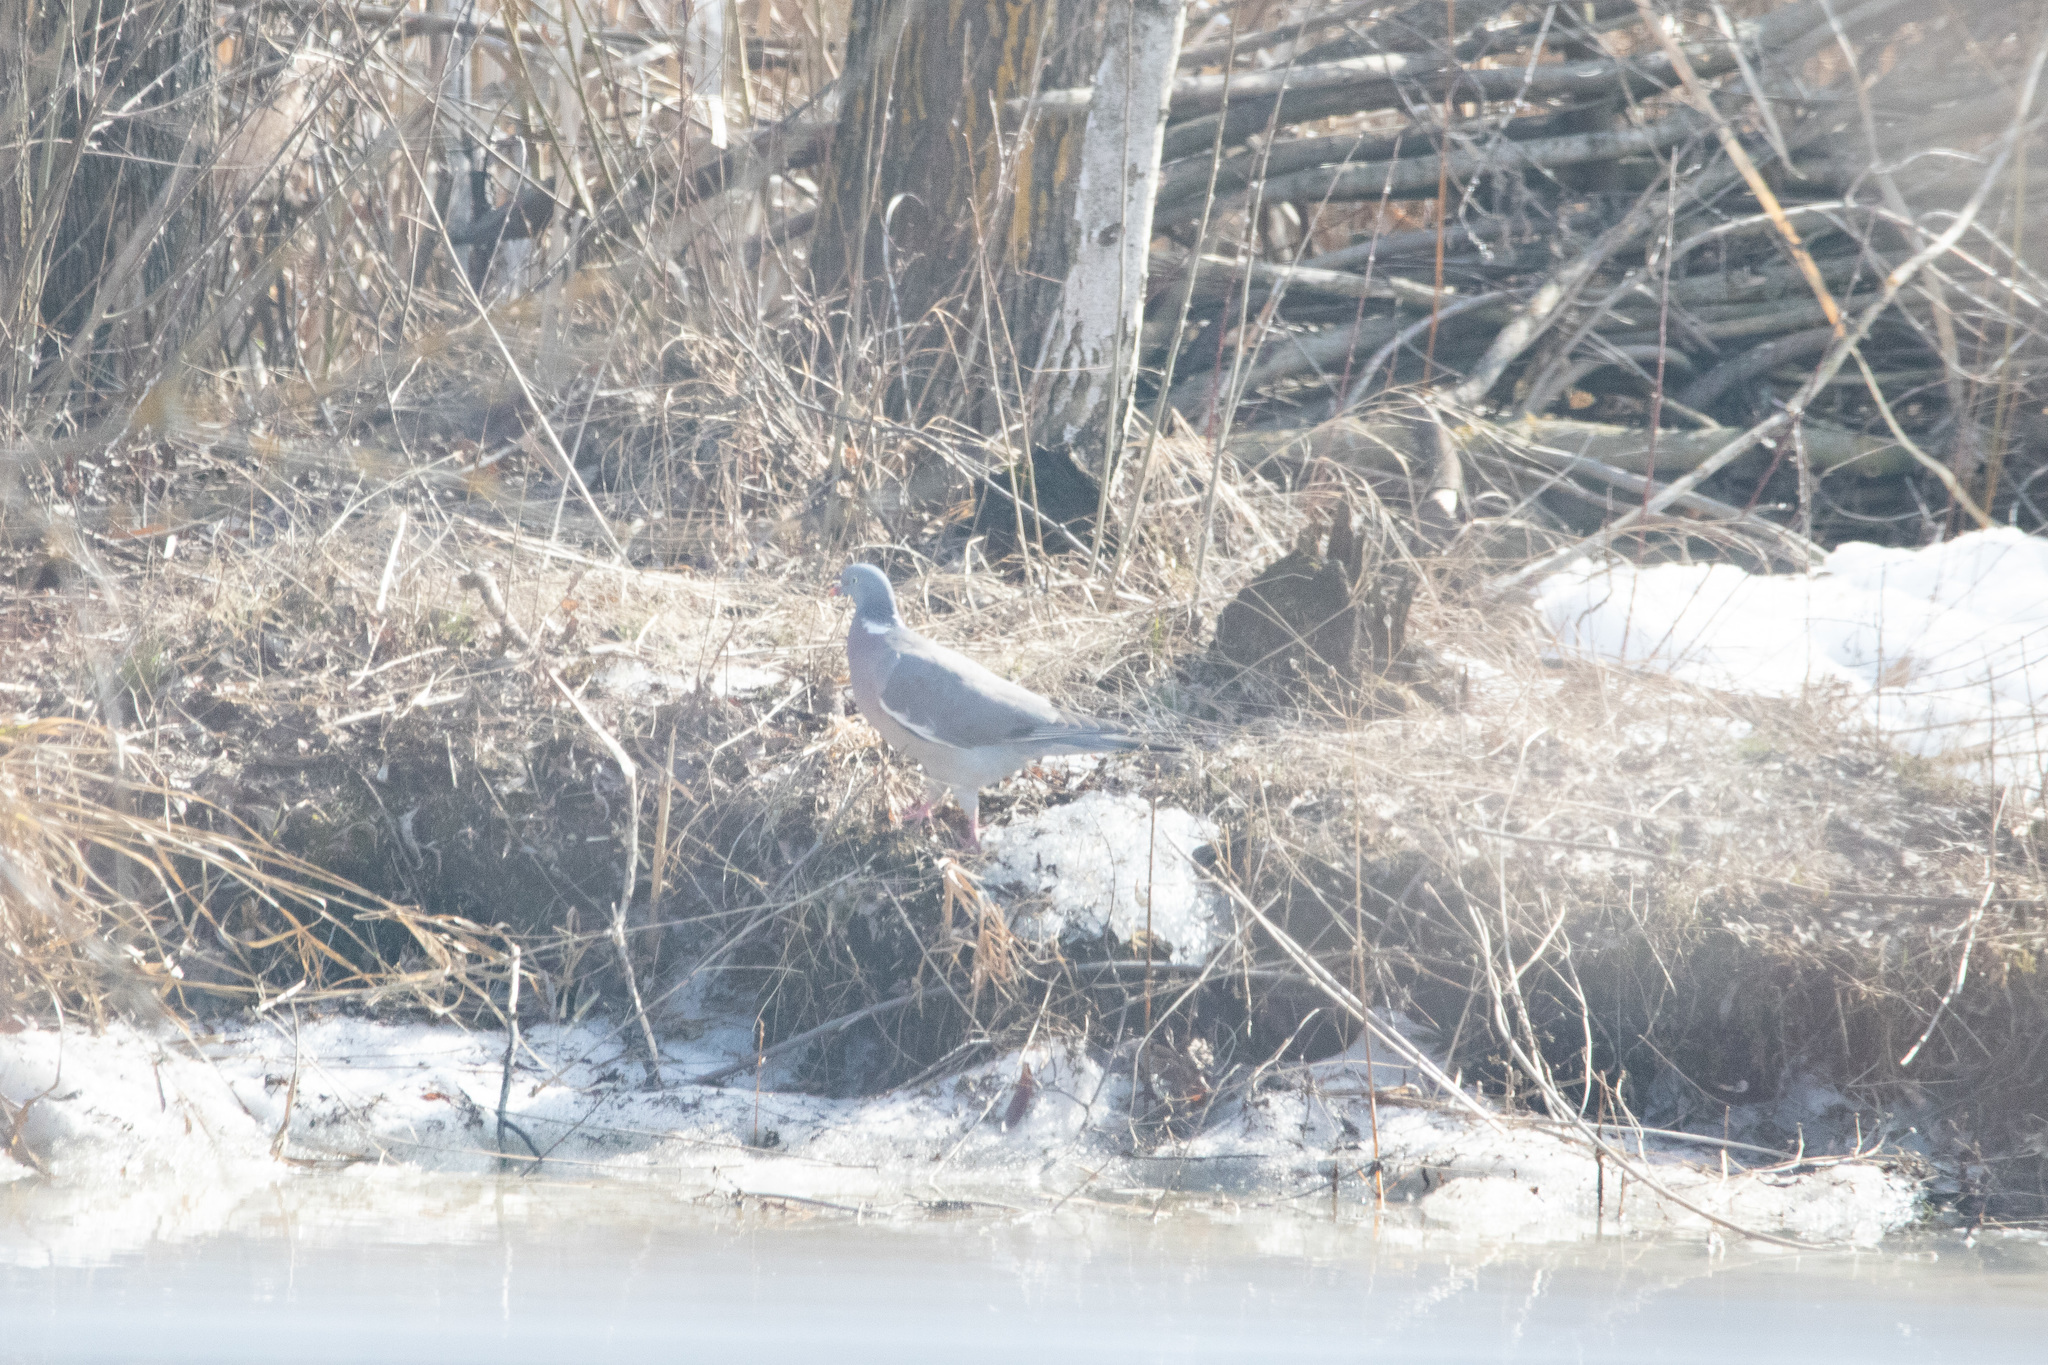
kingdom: Animalia
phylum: Chordata
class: Aves
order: Columbiformes
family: Columbidae
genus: Columba
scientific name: Columba palumbus
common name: Common wood pigeon
